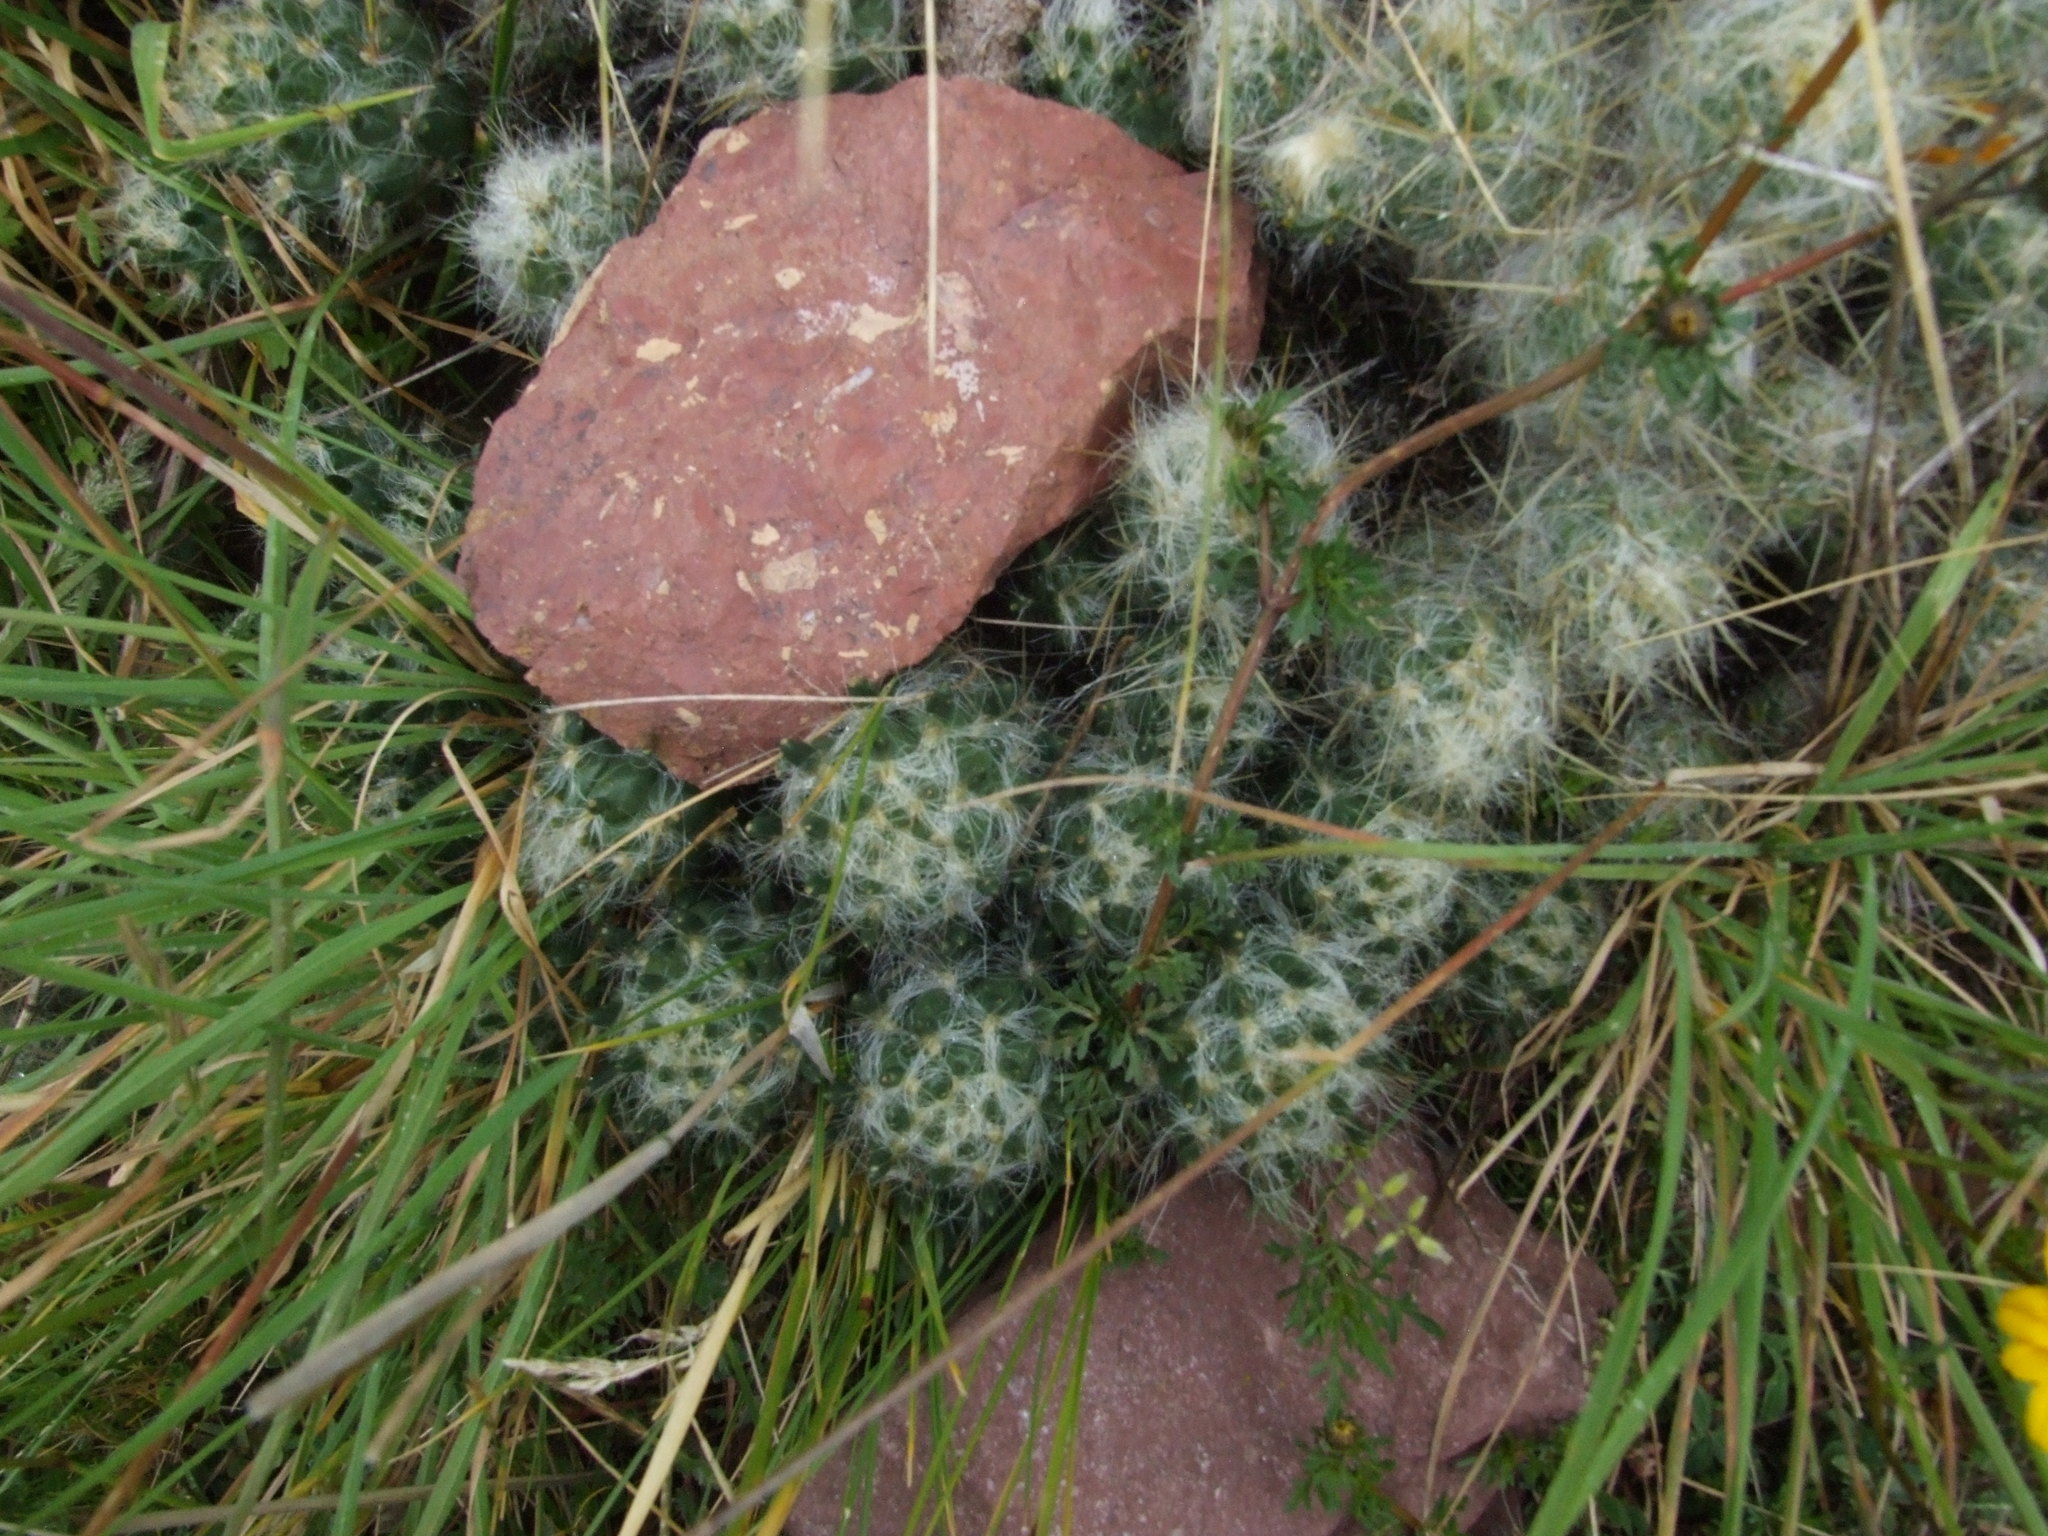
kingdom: Plantae
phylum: Tracheophyta
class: Magnoliopsida
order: Caryophyllales
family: Cactaceae
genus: Austrocylindropuntia
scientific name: Austrocylindropuntia floccosa
